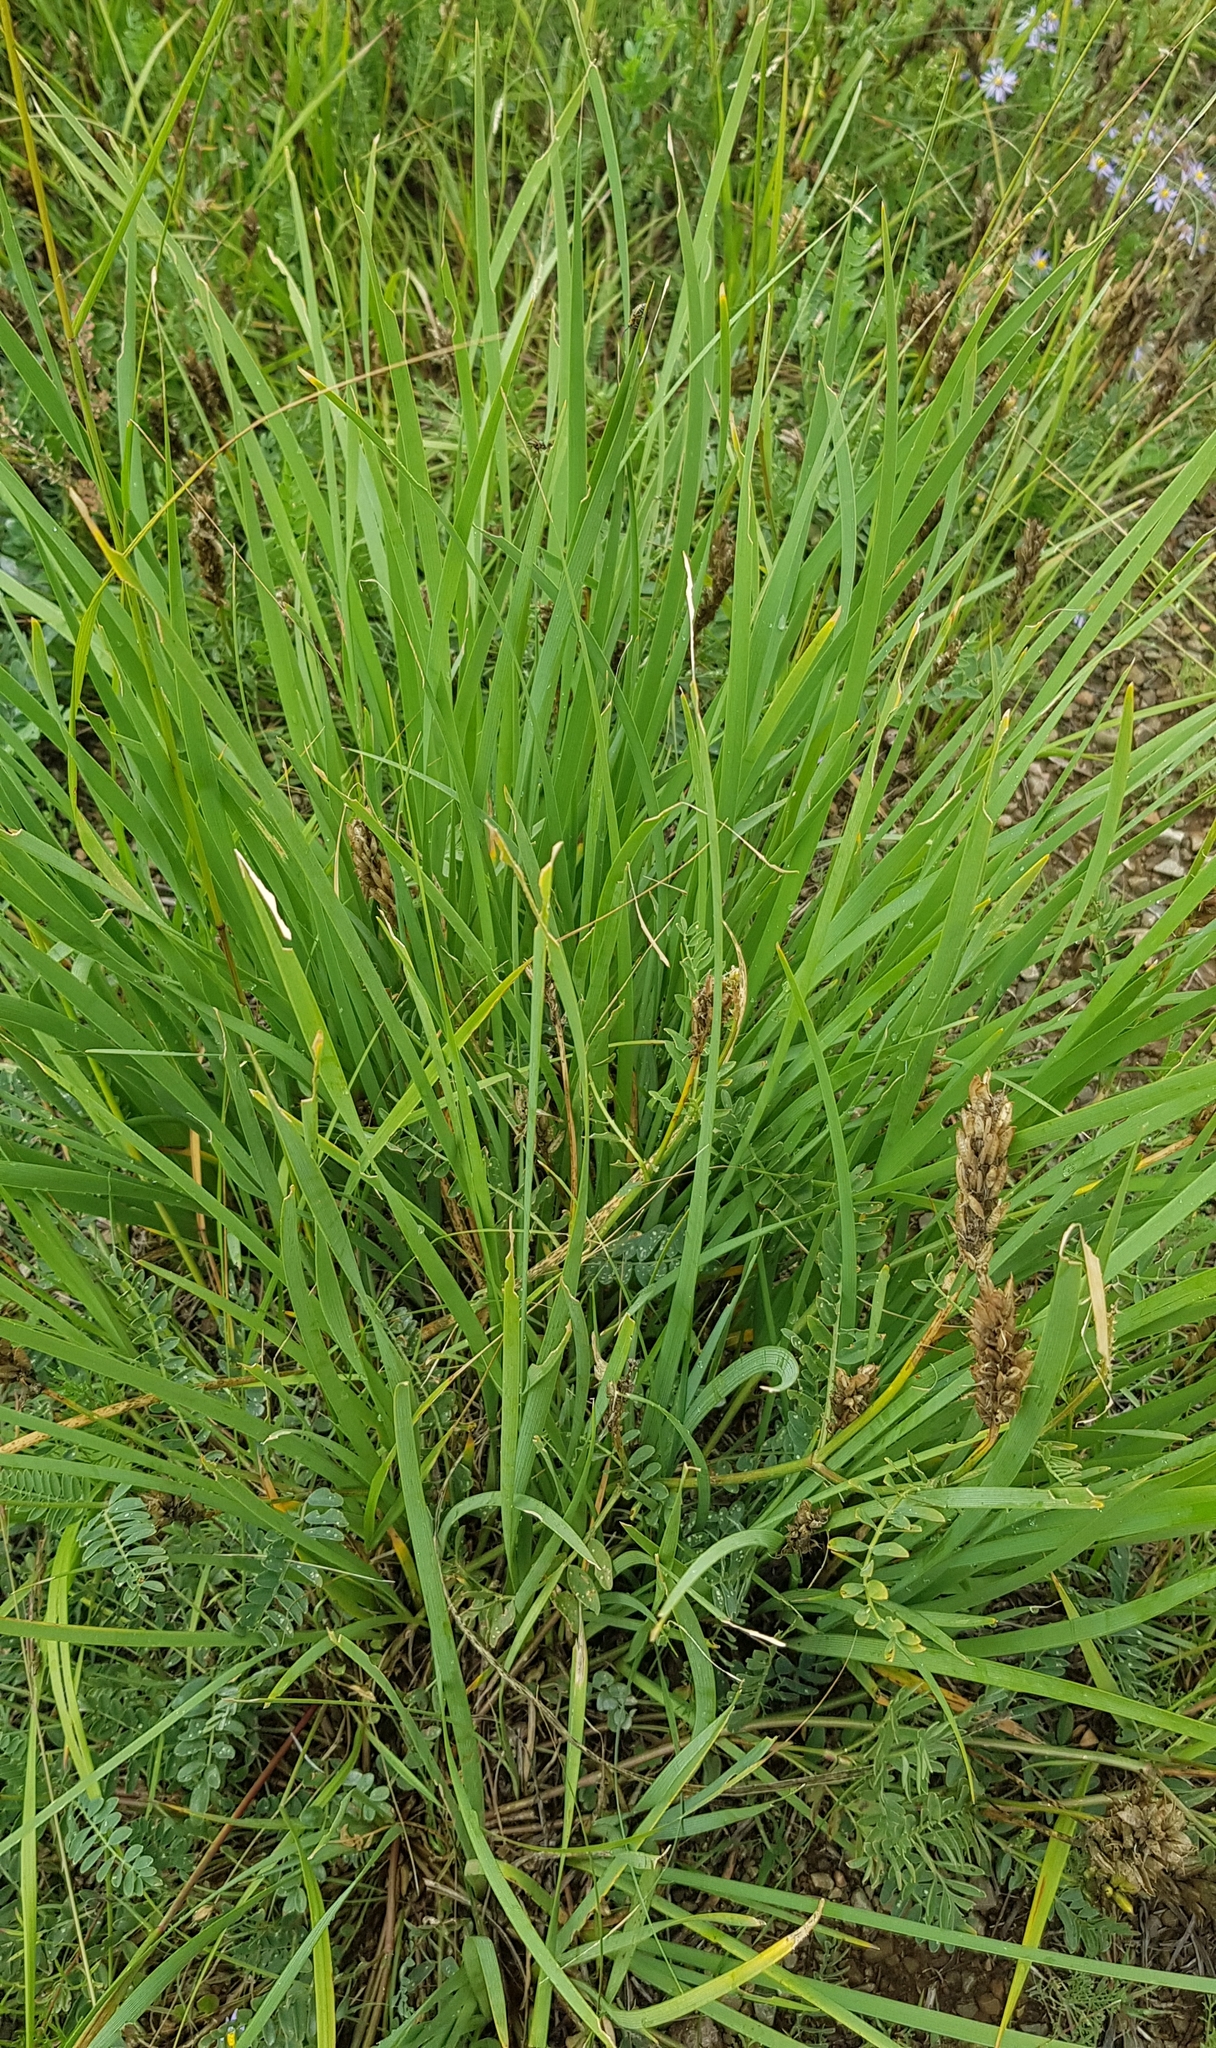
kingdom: Plantae
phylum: Tracheophyta
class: Liliopsida
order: Asparagales
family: Iridaceae
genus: Iris
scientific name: Iris lactea
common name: White-flower chinese iris
